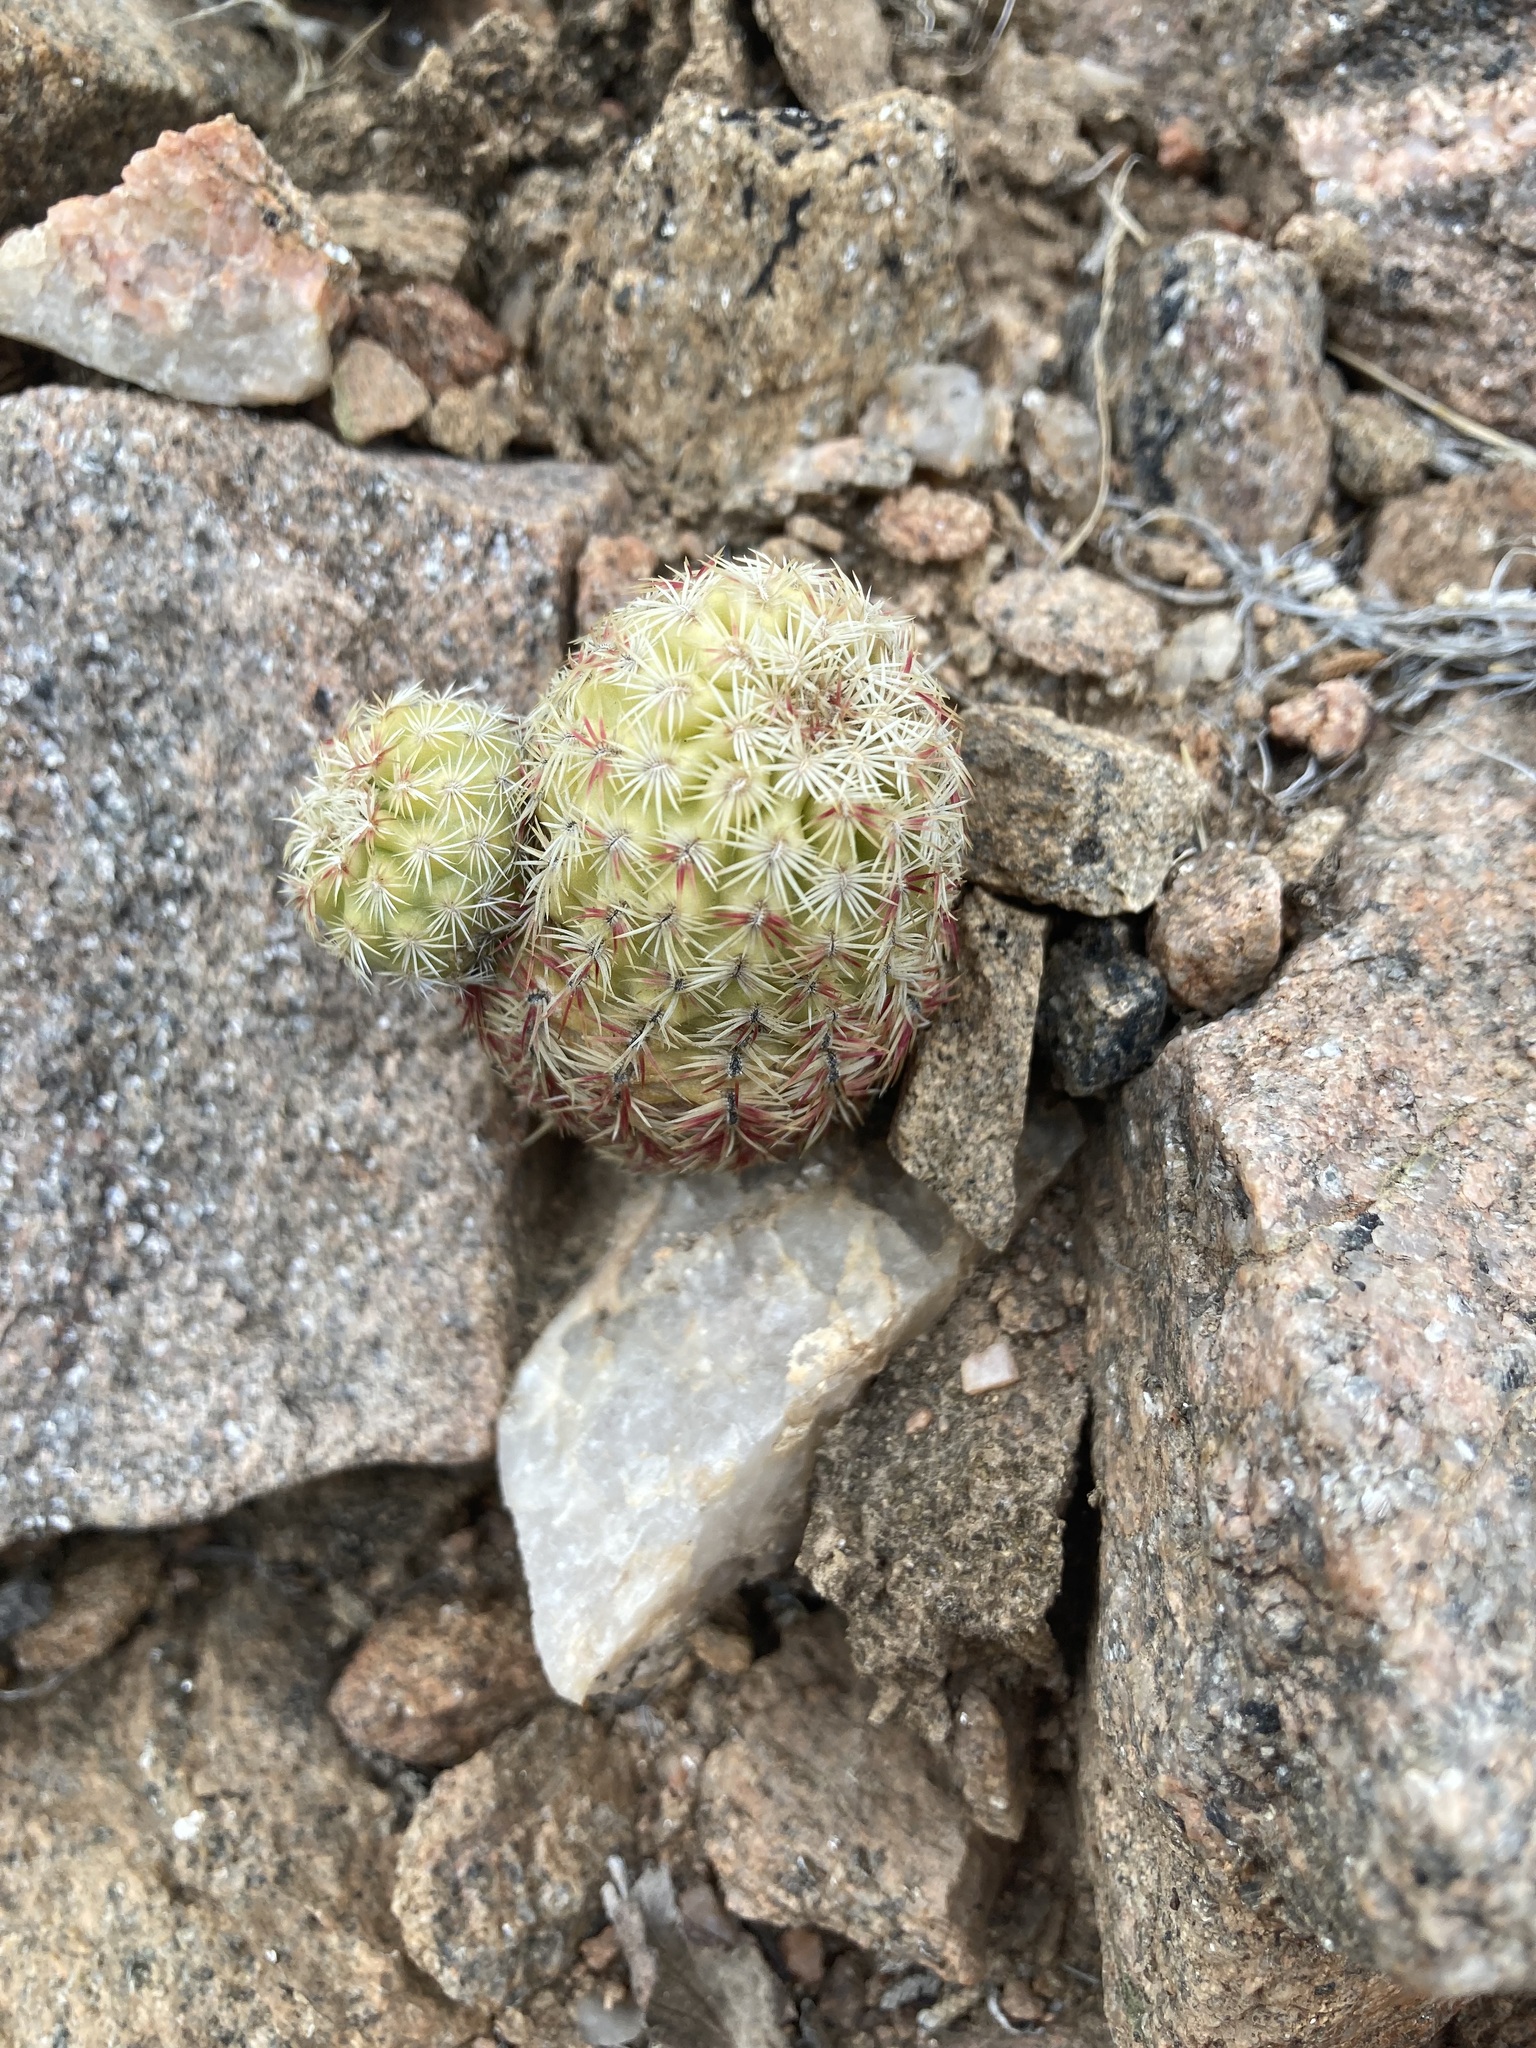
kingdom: Plantae
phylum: Tracheophyta
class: Magnoliopsida
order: Caryophyllales
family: Cactaceae
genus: Echinocereus
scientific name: Echinocereus viridiflorus
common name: Nylon hedgehog cactus
